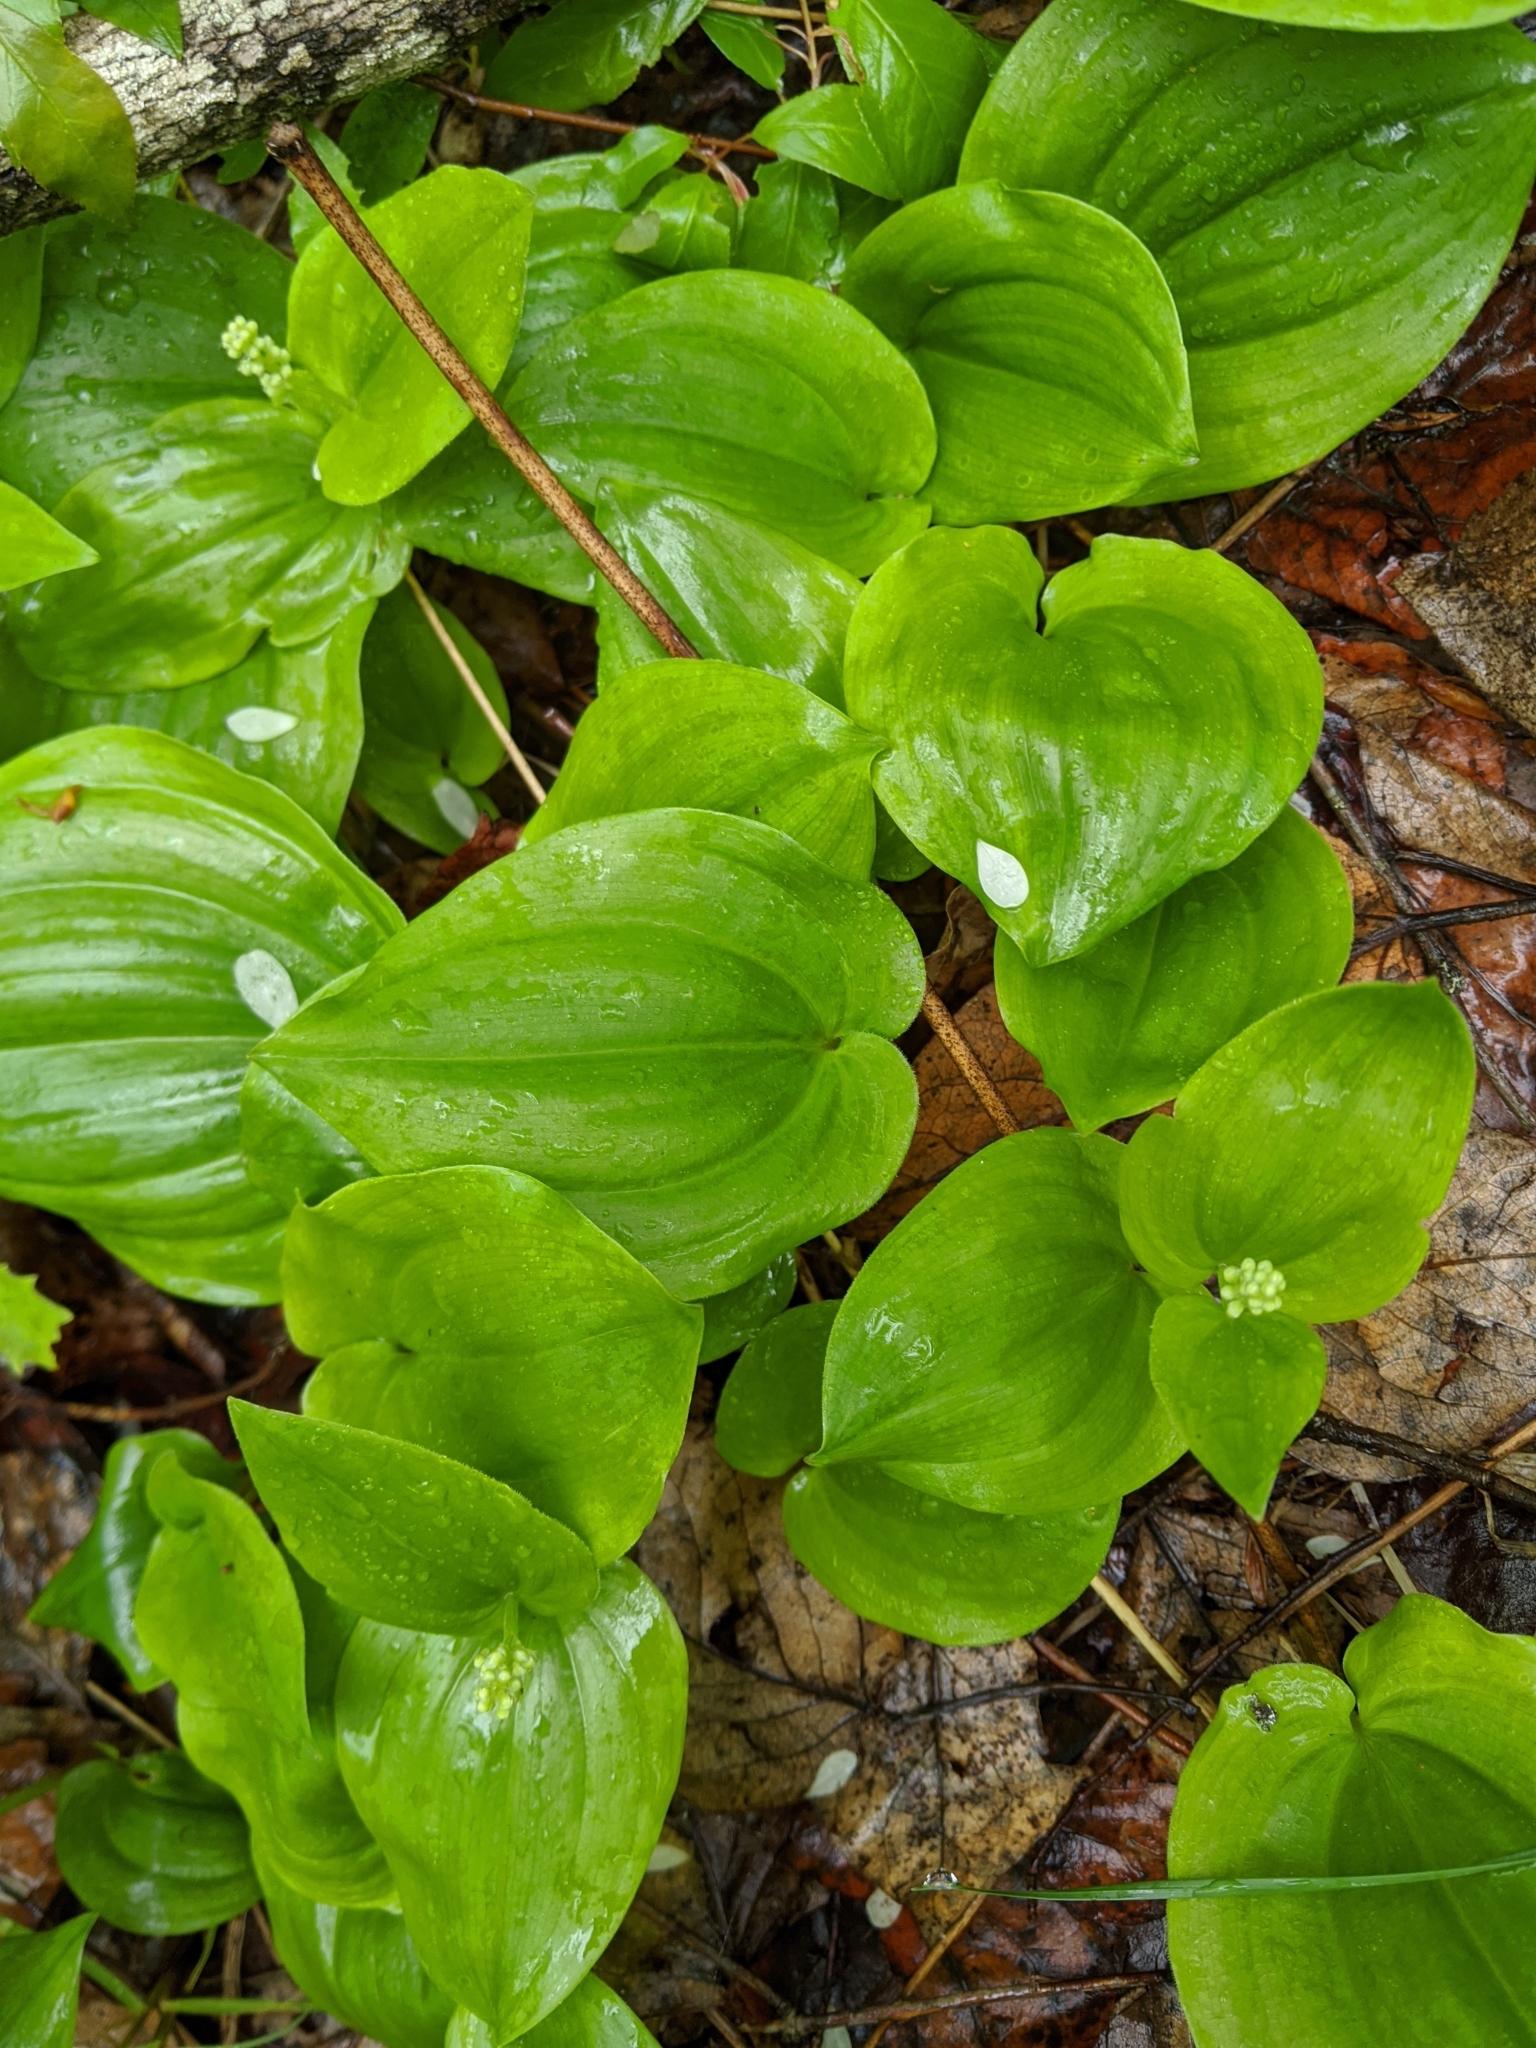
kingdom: Plantae
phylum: Tracheophyta
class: Liliopsida
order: Asparagales
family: Asparagaceae
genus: Maianthemum
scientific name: Maianthemum canadense
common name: False lily-of-the-valley
